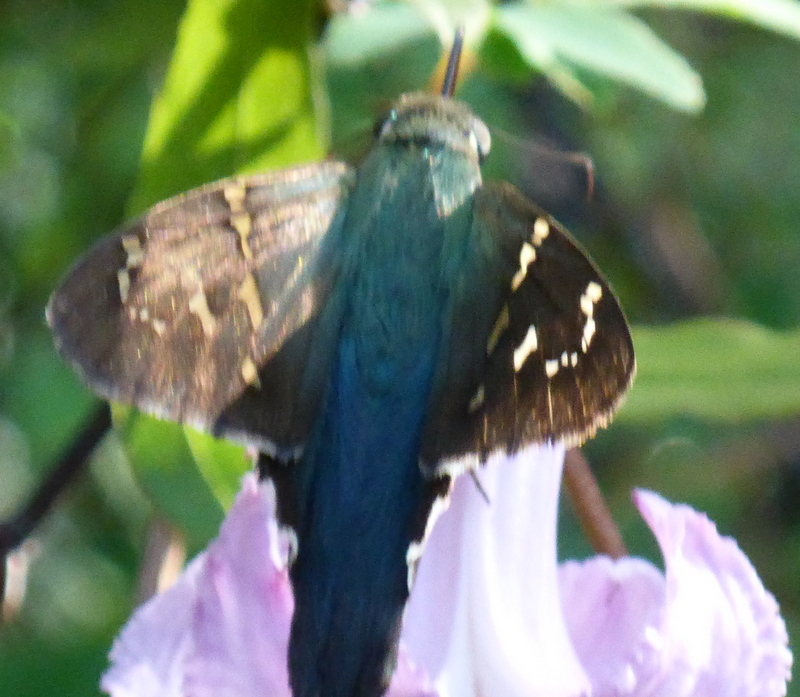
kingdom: Animalia
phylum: Arthropoda
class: Insecta
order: Lepidoptera
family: Hesperiidae
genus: Urbanus
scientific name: Urbanus proteus
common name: Long-tailed skipper
